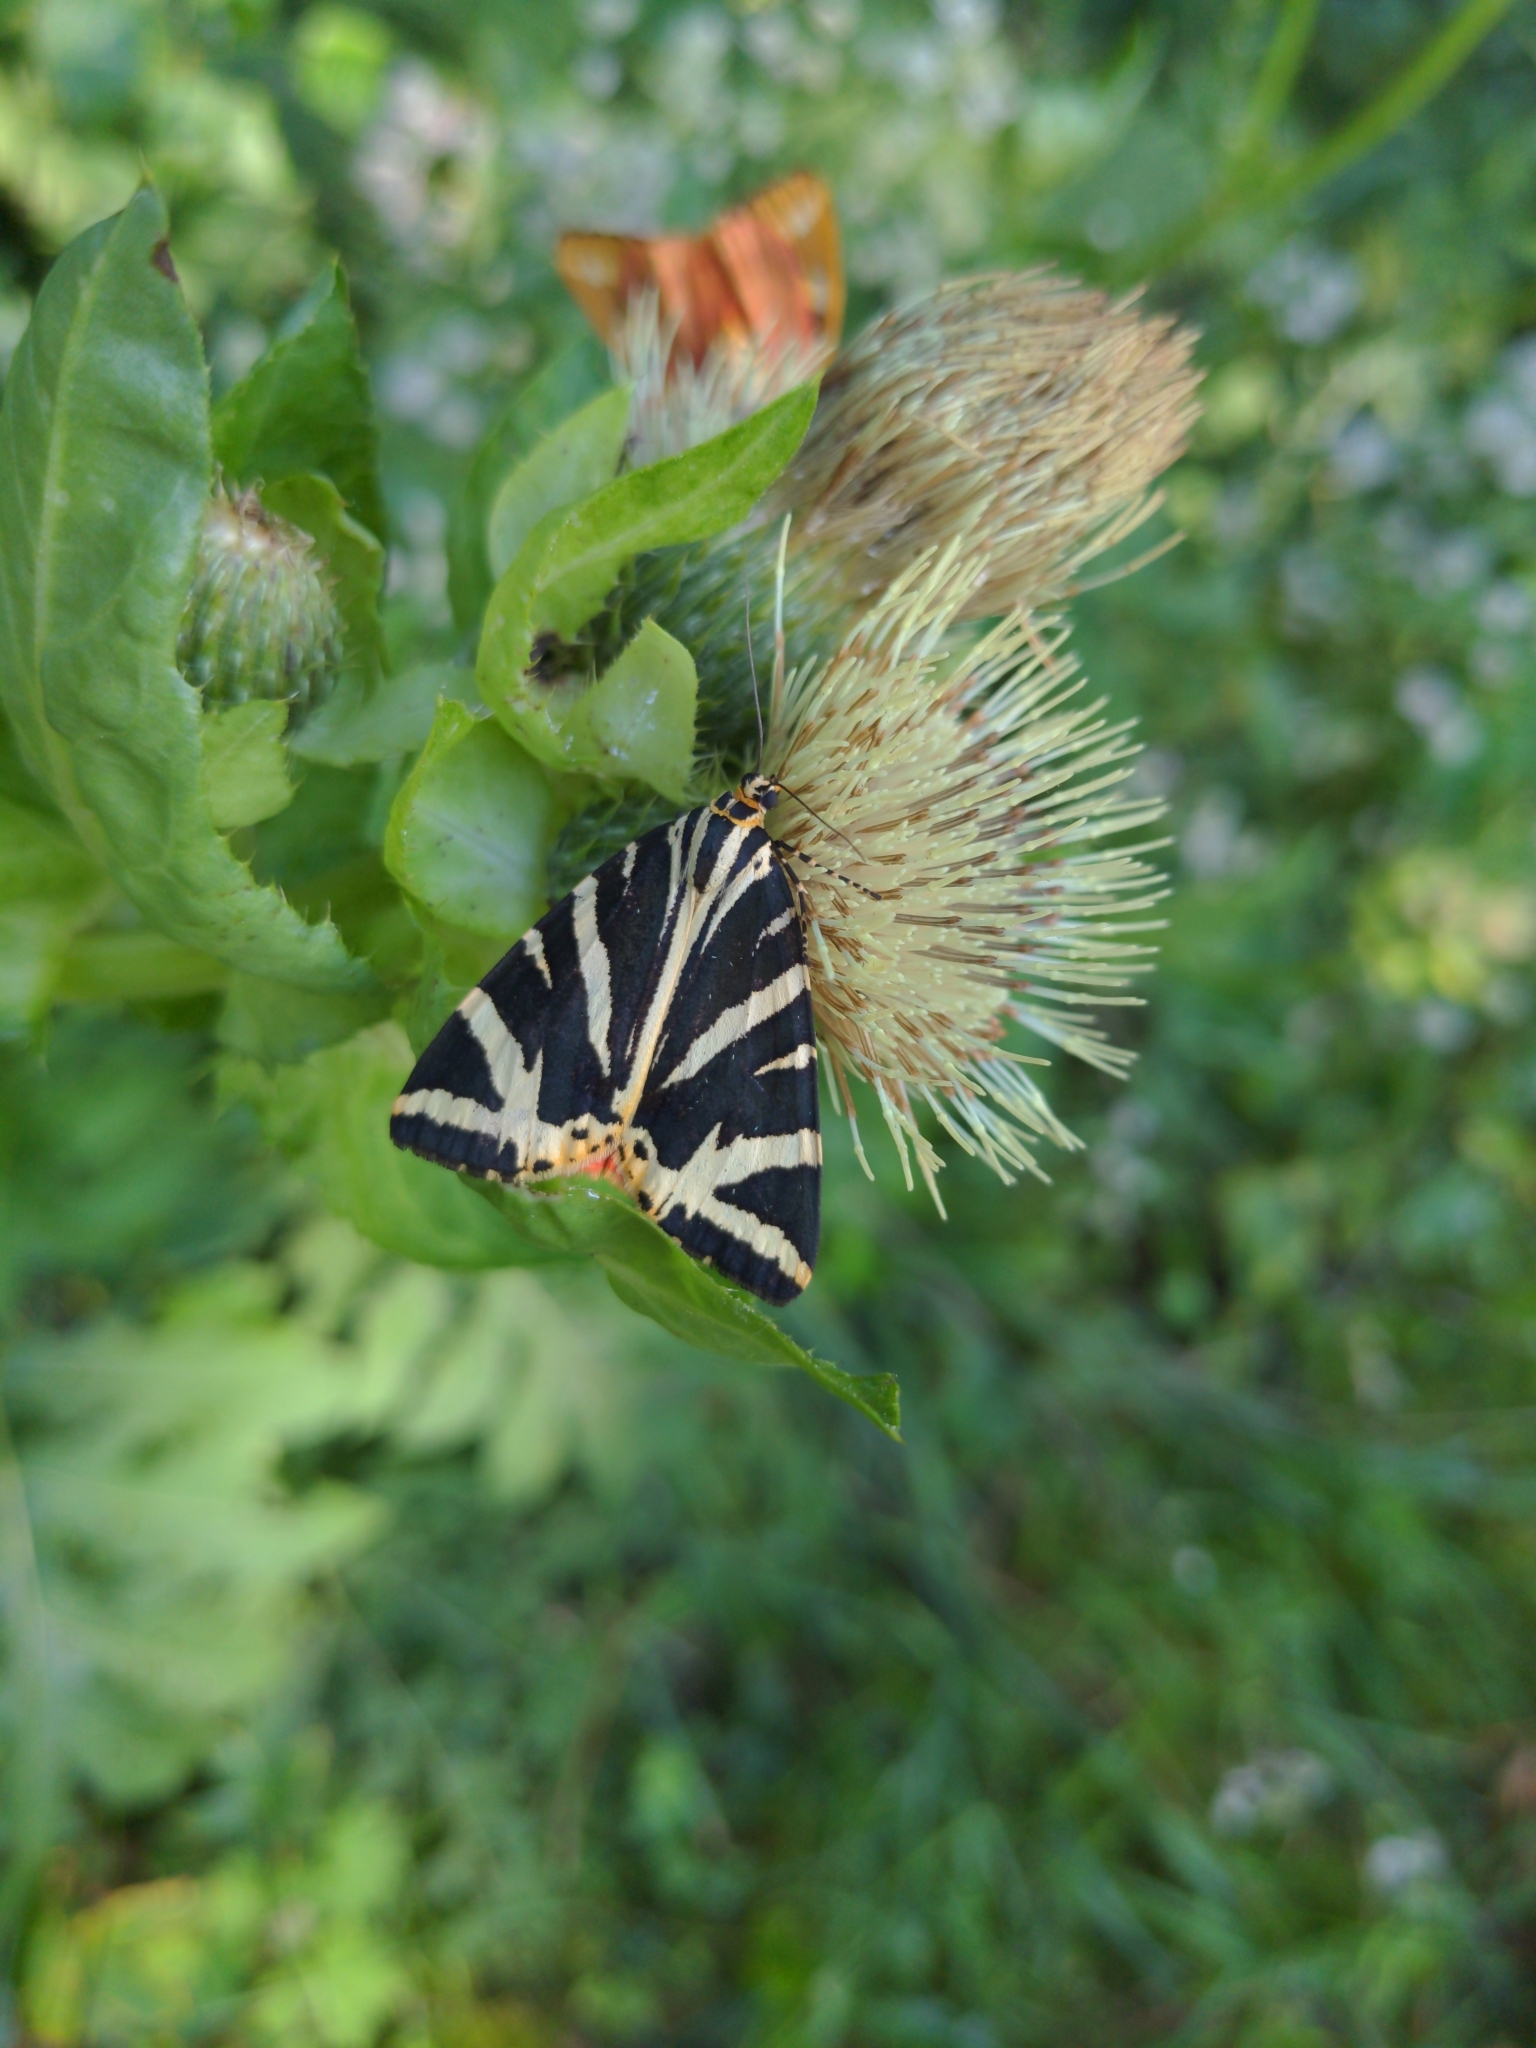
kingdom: Animalia
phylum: Arthropoda
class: Insecta
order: Lepidoptera
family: Erebidae
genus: Euplagia
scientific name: Euplagia quadripunctaria
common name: Jersey tiger
